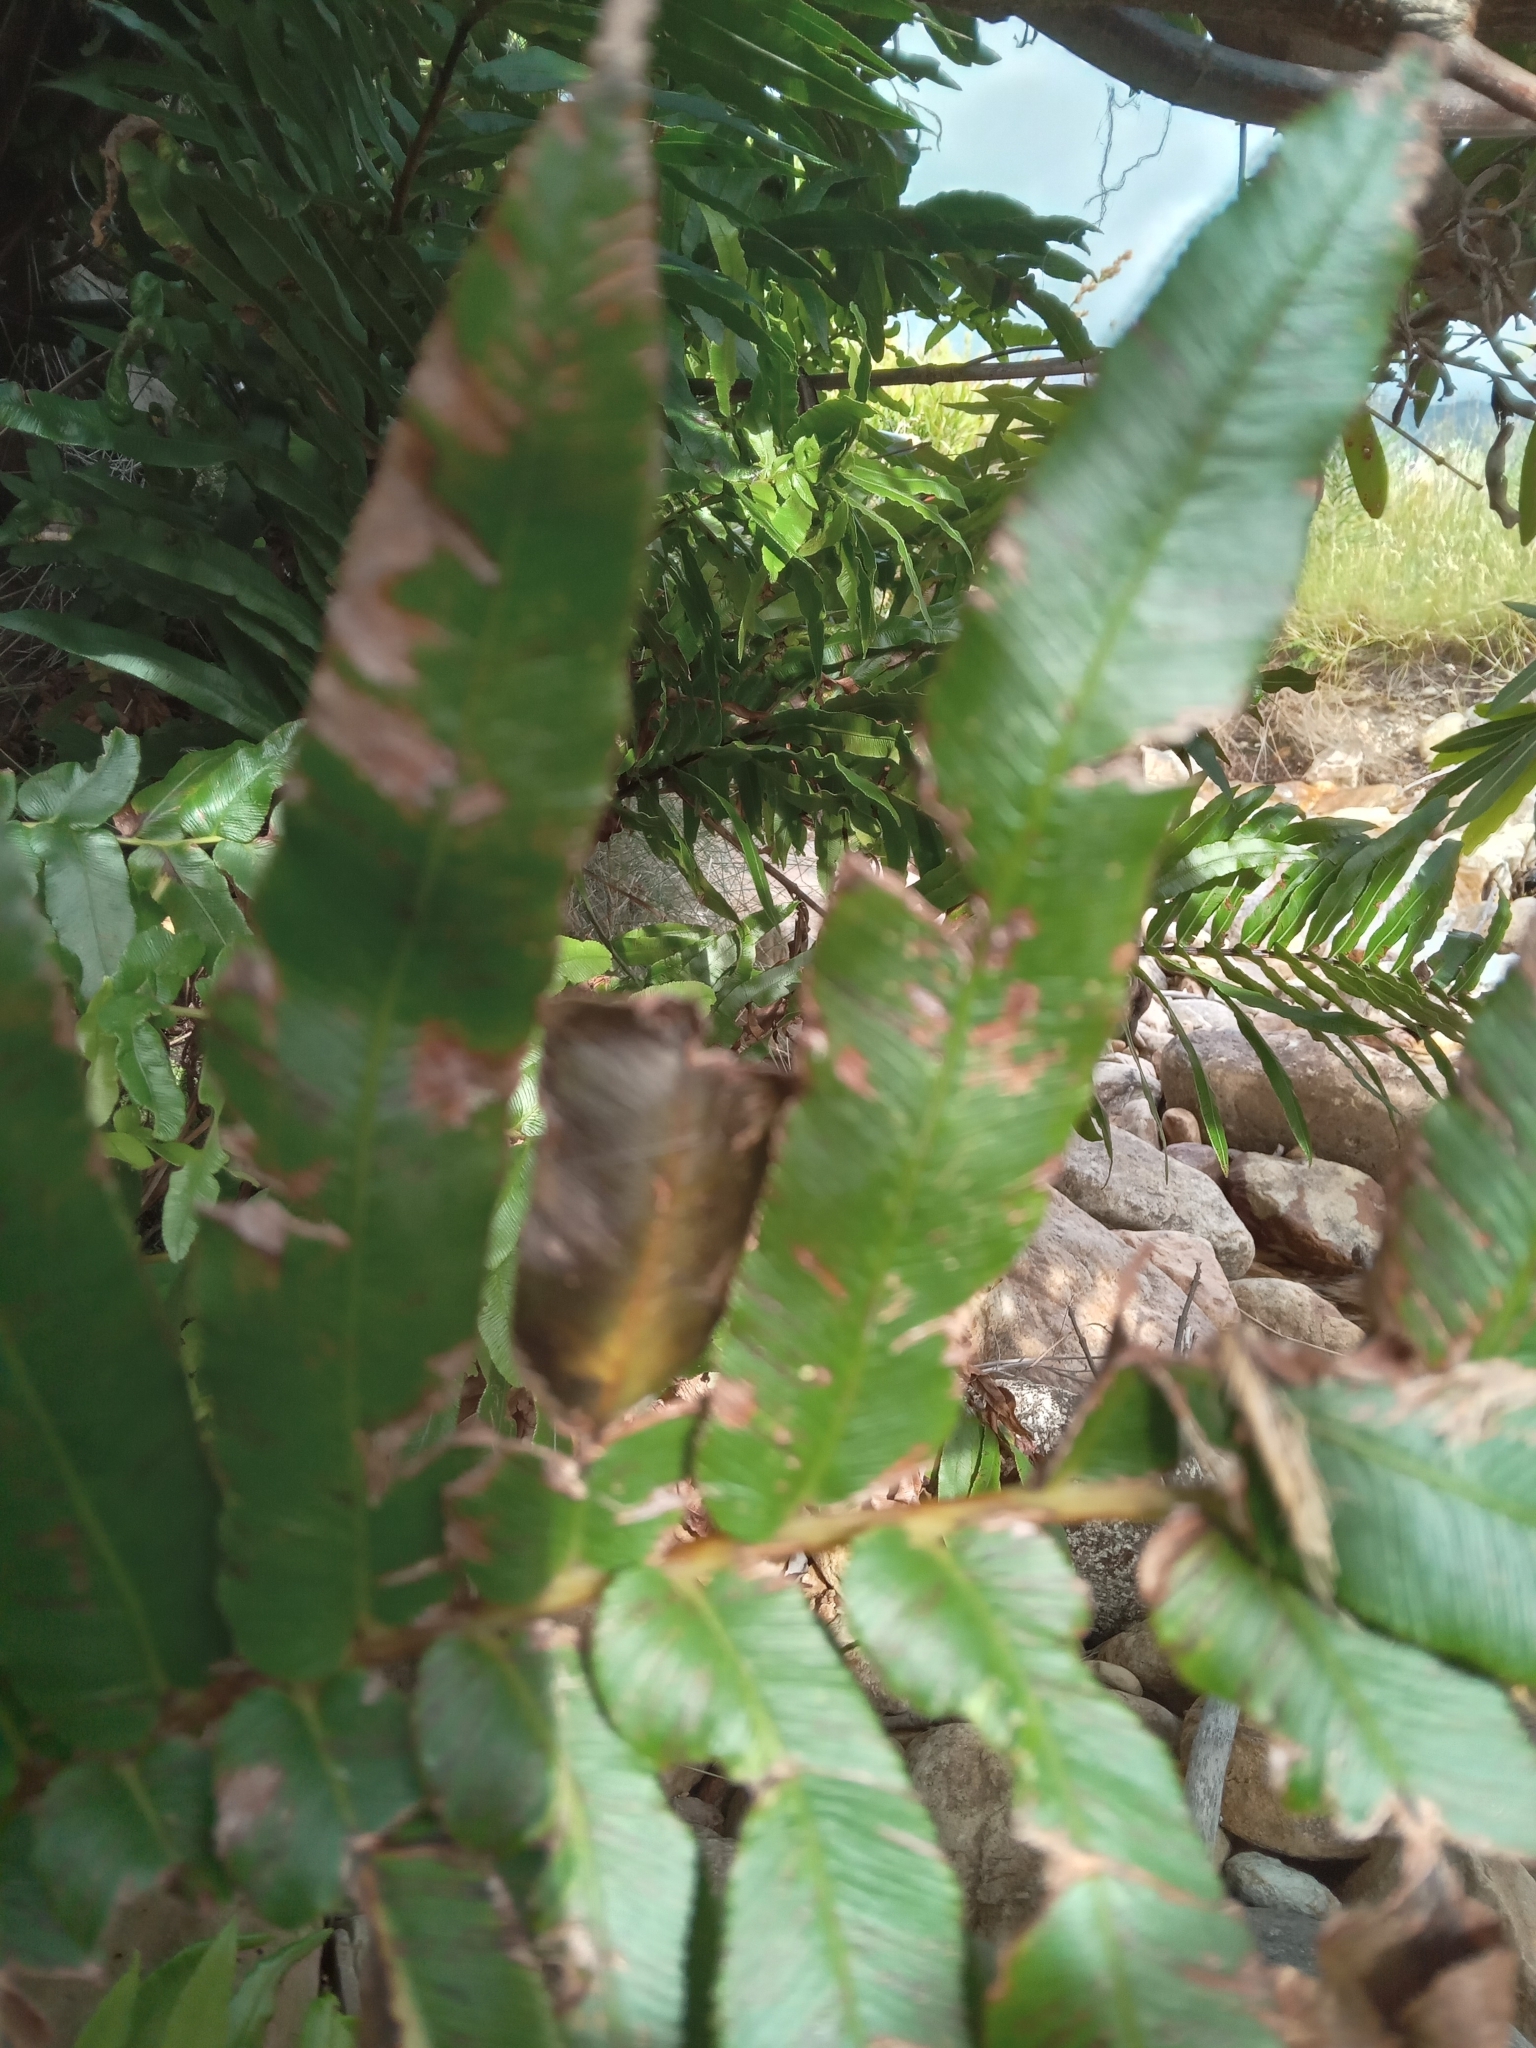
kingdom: Plantae
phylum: Tracheophyta
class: Polypodiopsida
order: Polypodiales
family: Blechnaceae
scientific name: Blechnaceae
